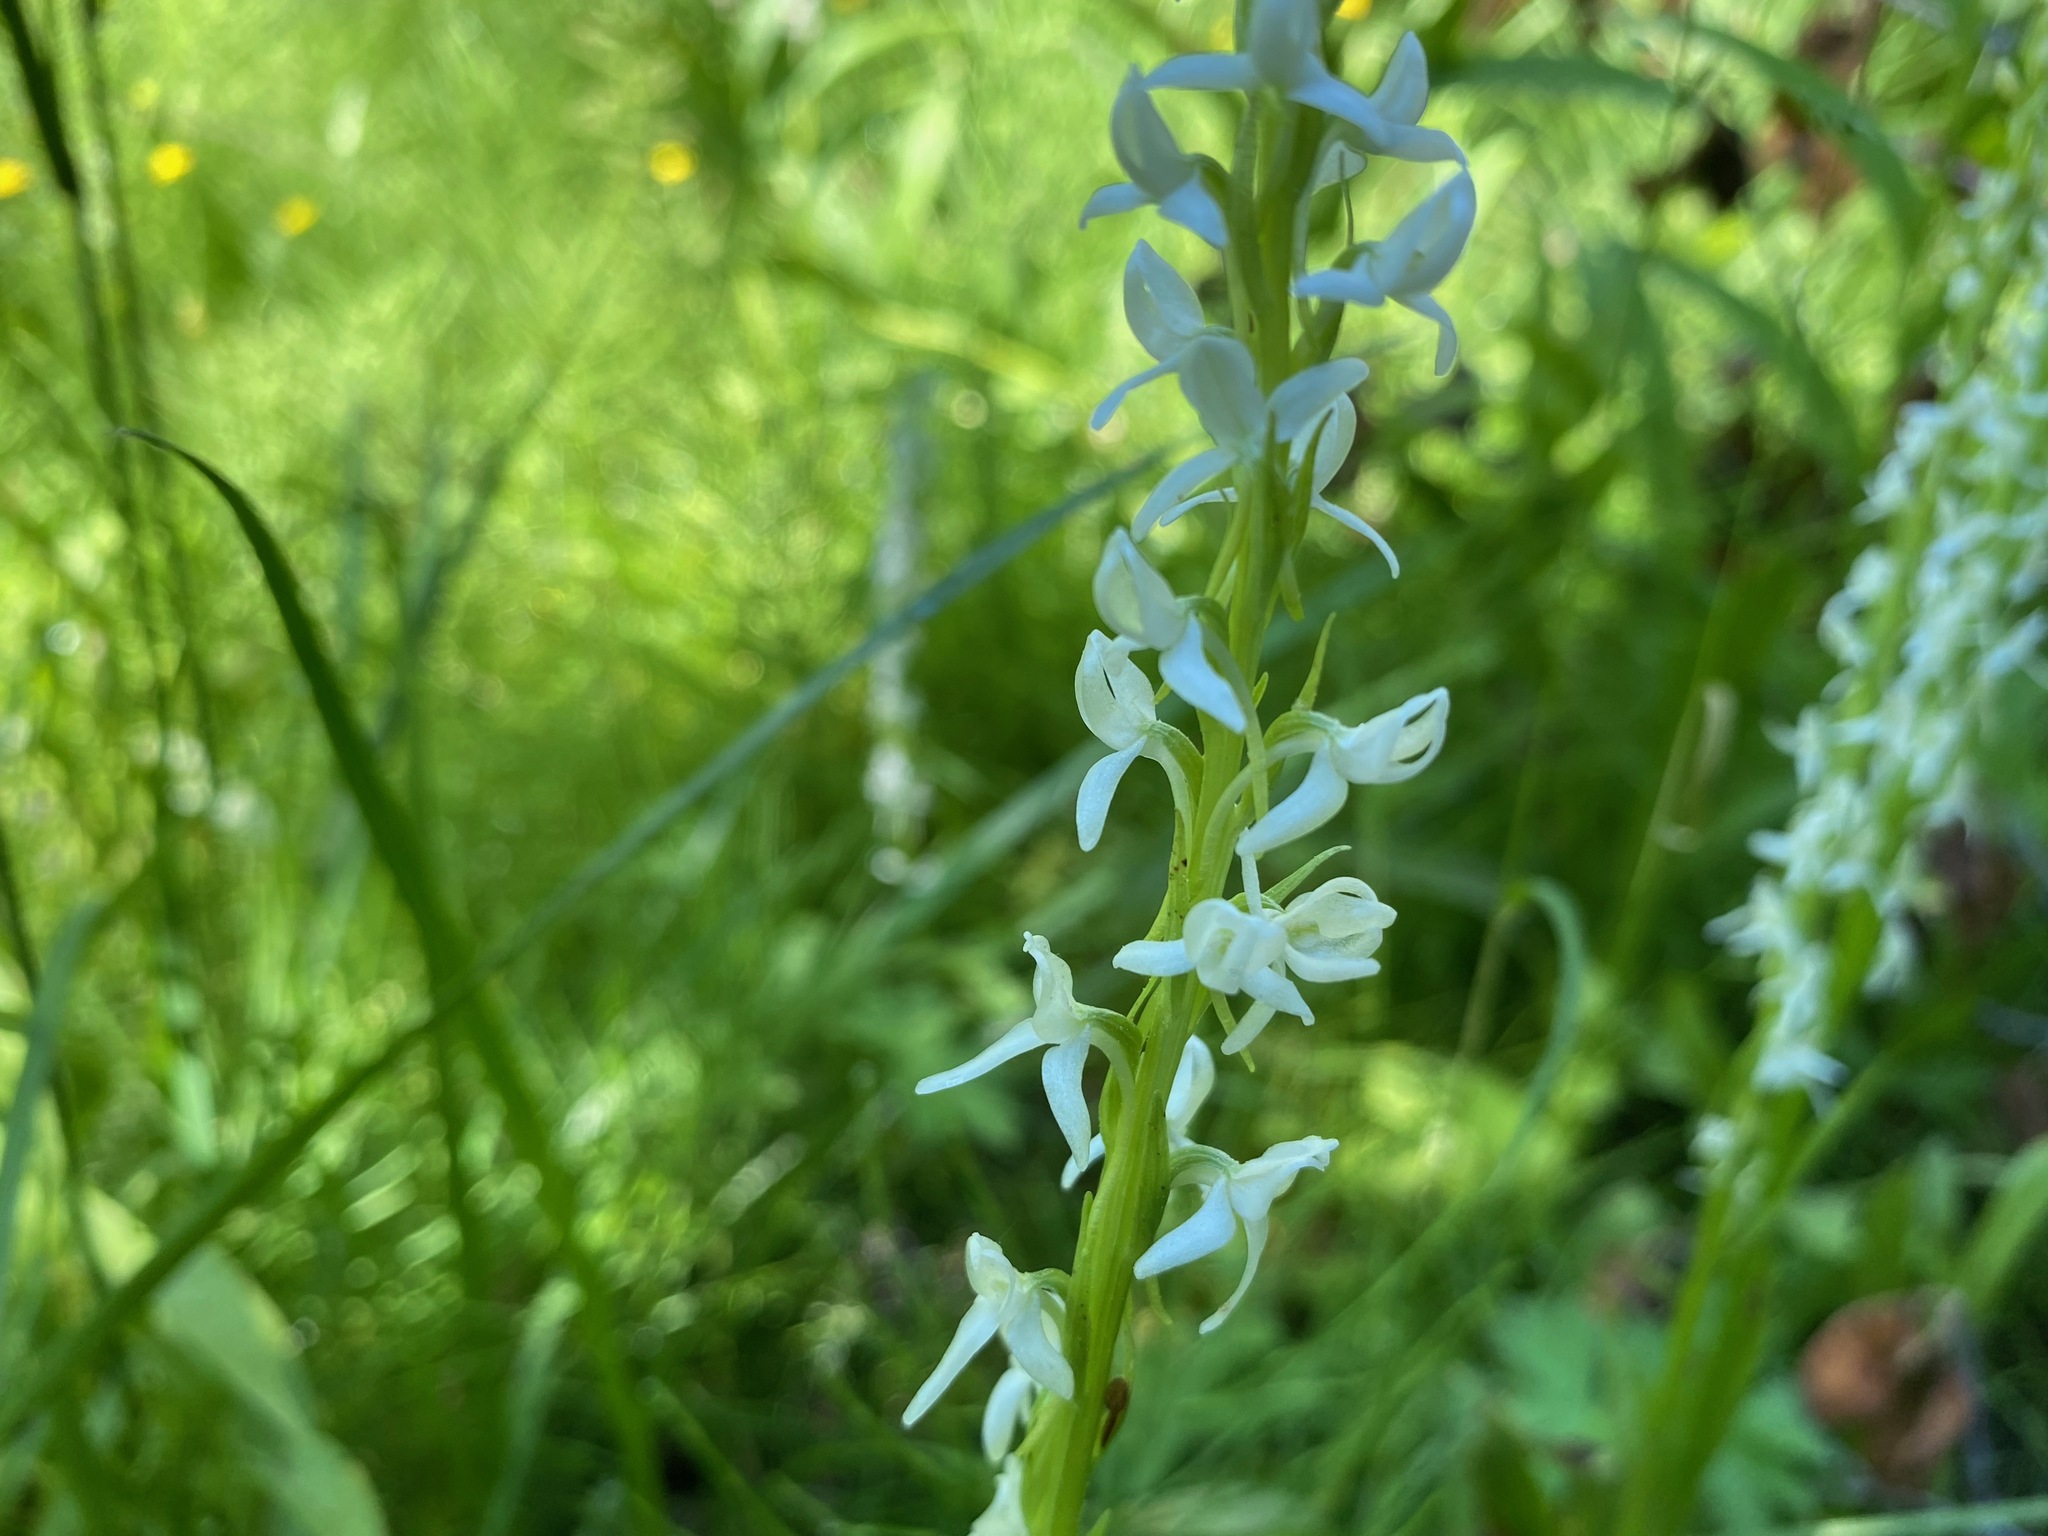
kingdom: Plantae
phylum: Tracheophyta
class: Liliopsida
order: Asparagales
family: Orchidaceae
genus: Platanthera
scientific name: Platanthera dilatata
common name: Bog candles
